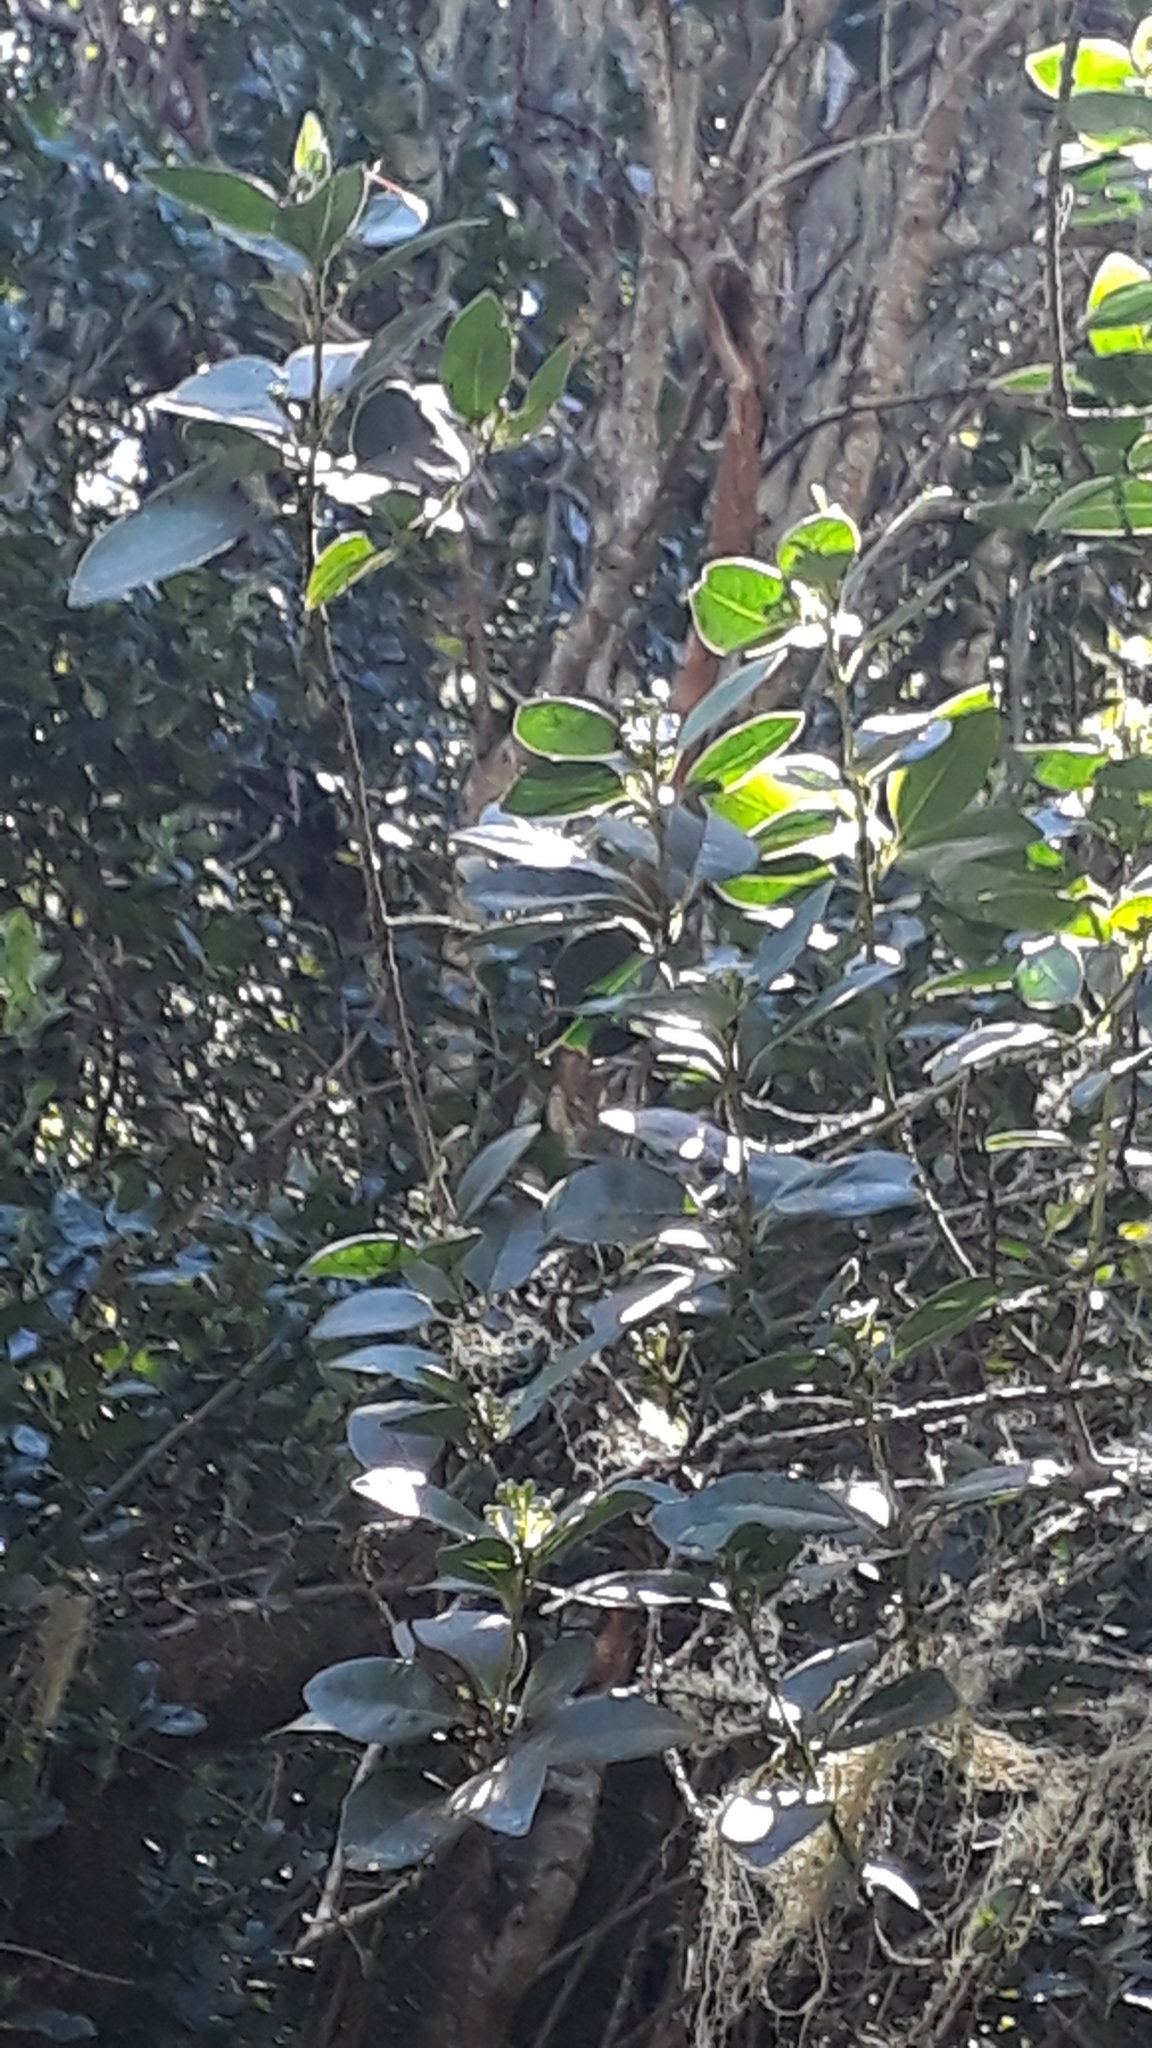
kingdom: Plantae
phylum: Tracheophyta
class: Magnoliopsida
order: Aquifoliales
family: Aquifoliaceae
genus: Ilex
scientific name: Ilex canariensis
